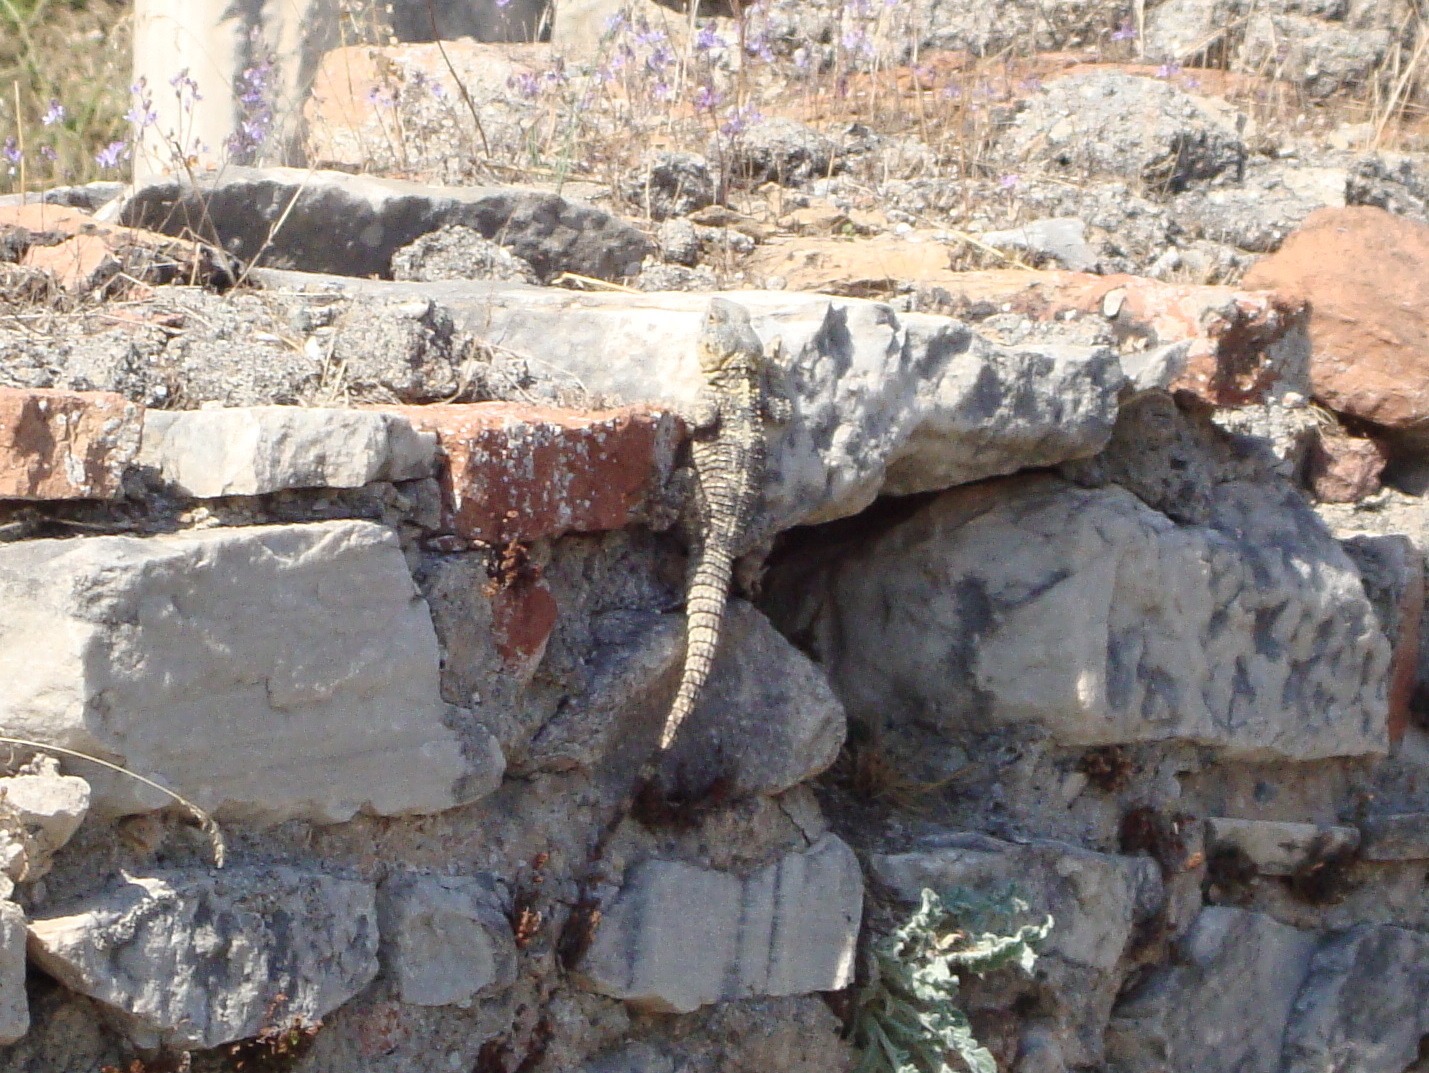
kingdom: Animalia
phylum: Chordata
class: Squamata
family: Agamidae
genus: Stellagama
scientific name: Stellagama stellio
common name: Starred agama
